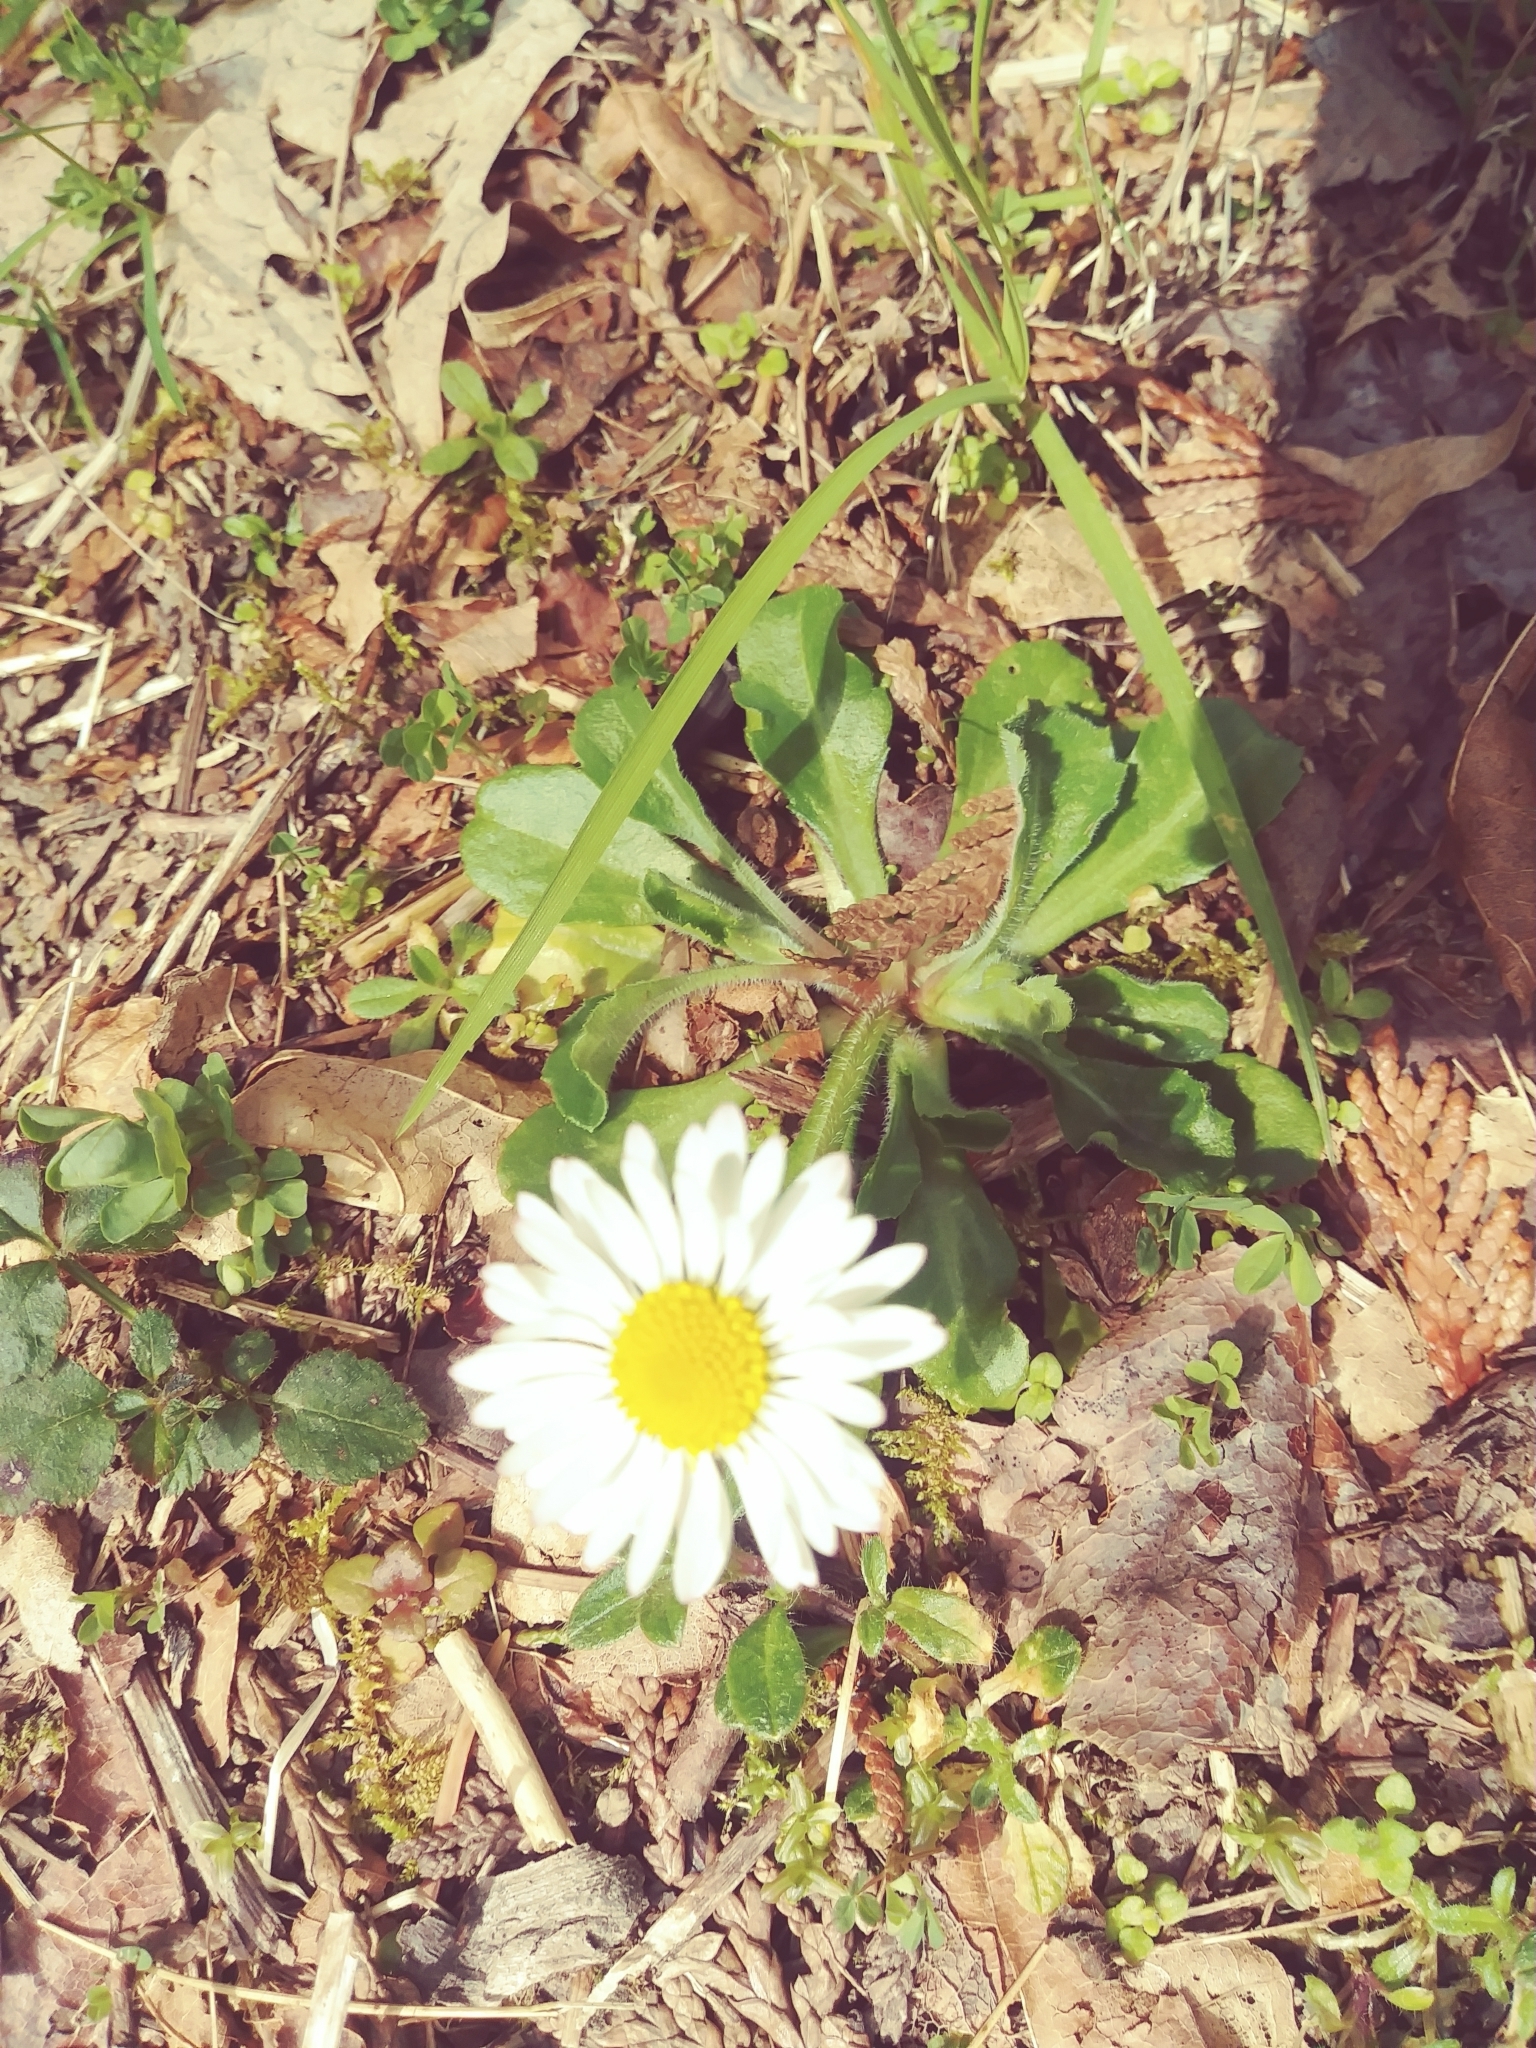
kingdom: Plantae
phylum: Tracheophyta
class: Magnoliopsida
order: Asterales
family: Asteraceae
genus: Bellis
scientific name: Bellis perennis
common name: Lawndaisy
